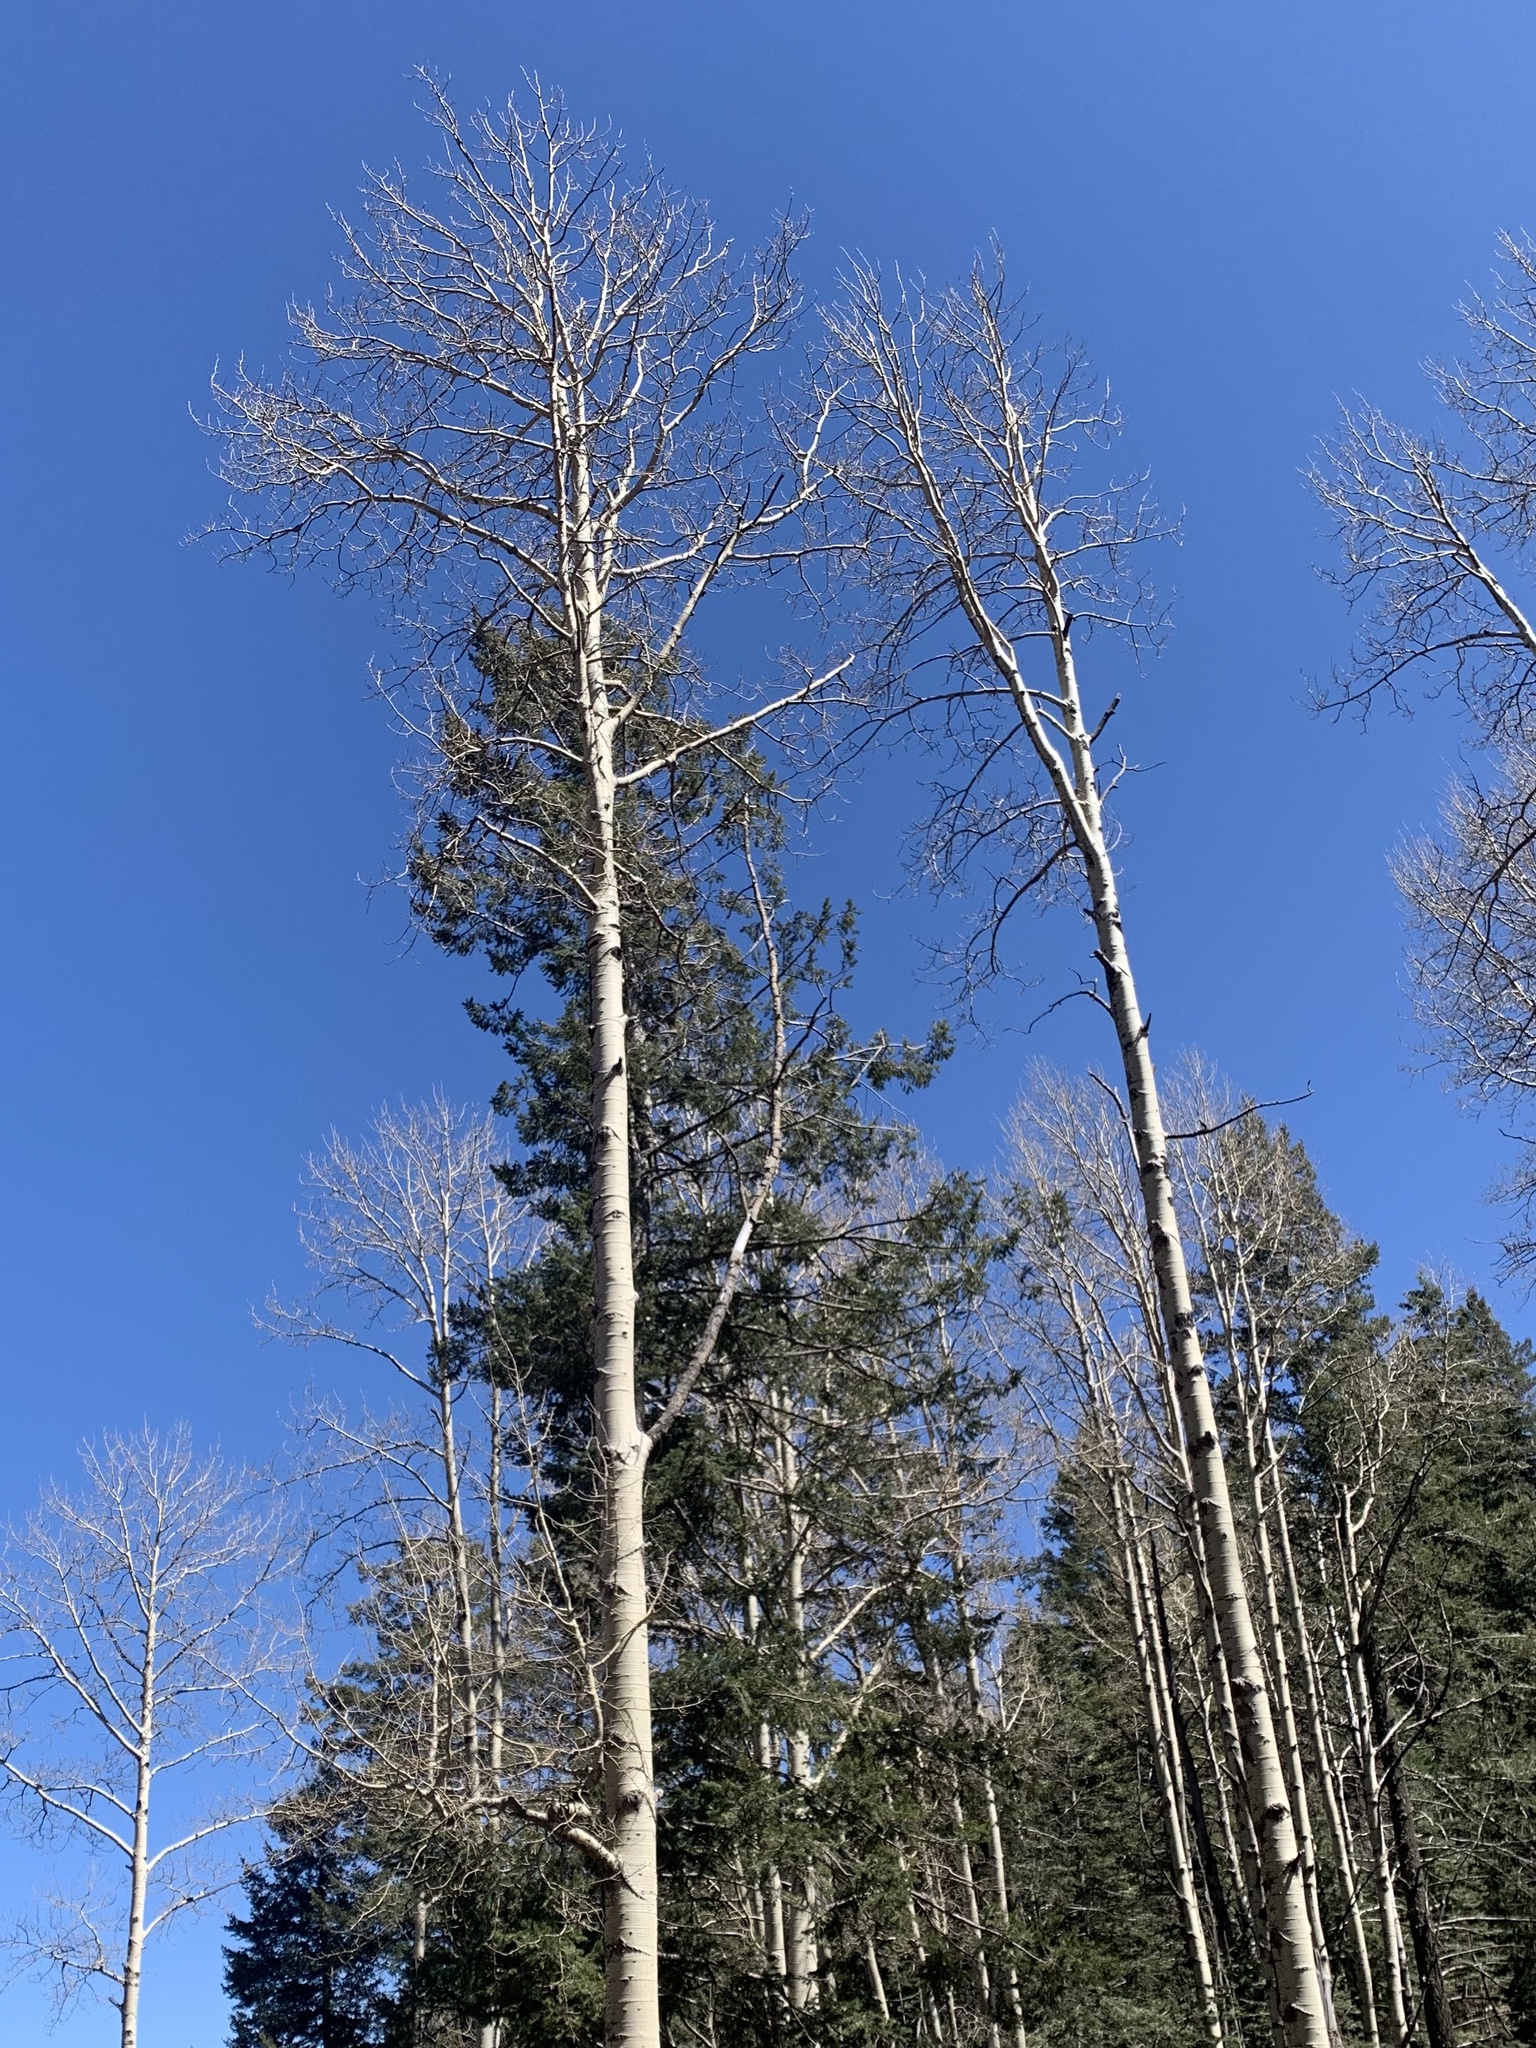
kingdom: Plantae
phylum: Tracheophyta
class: Magnoliopsida
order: Malpighiales
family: Salicaceae
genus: Populus
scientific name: Populus tremuloides
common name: Quaking aspen
